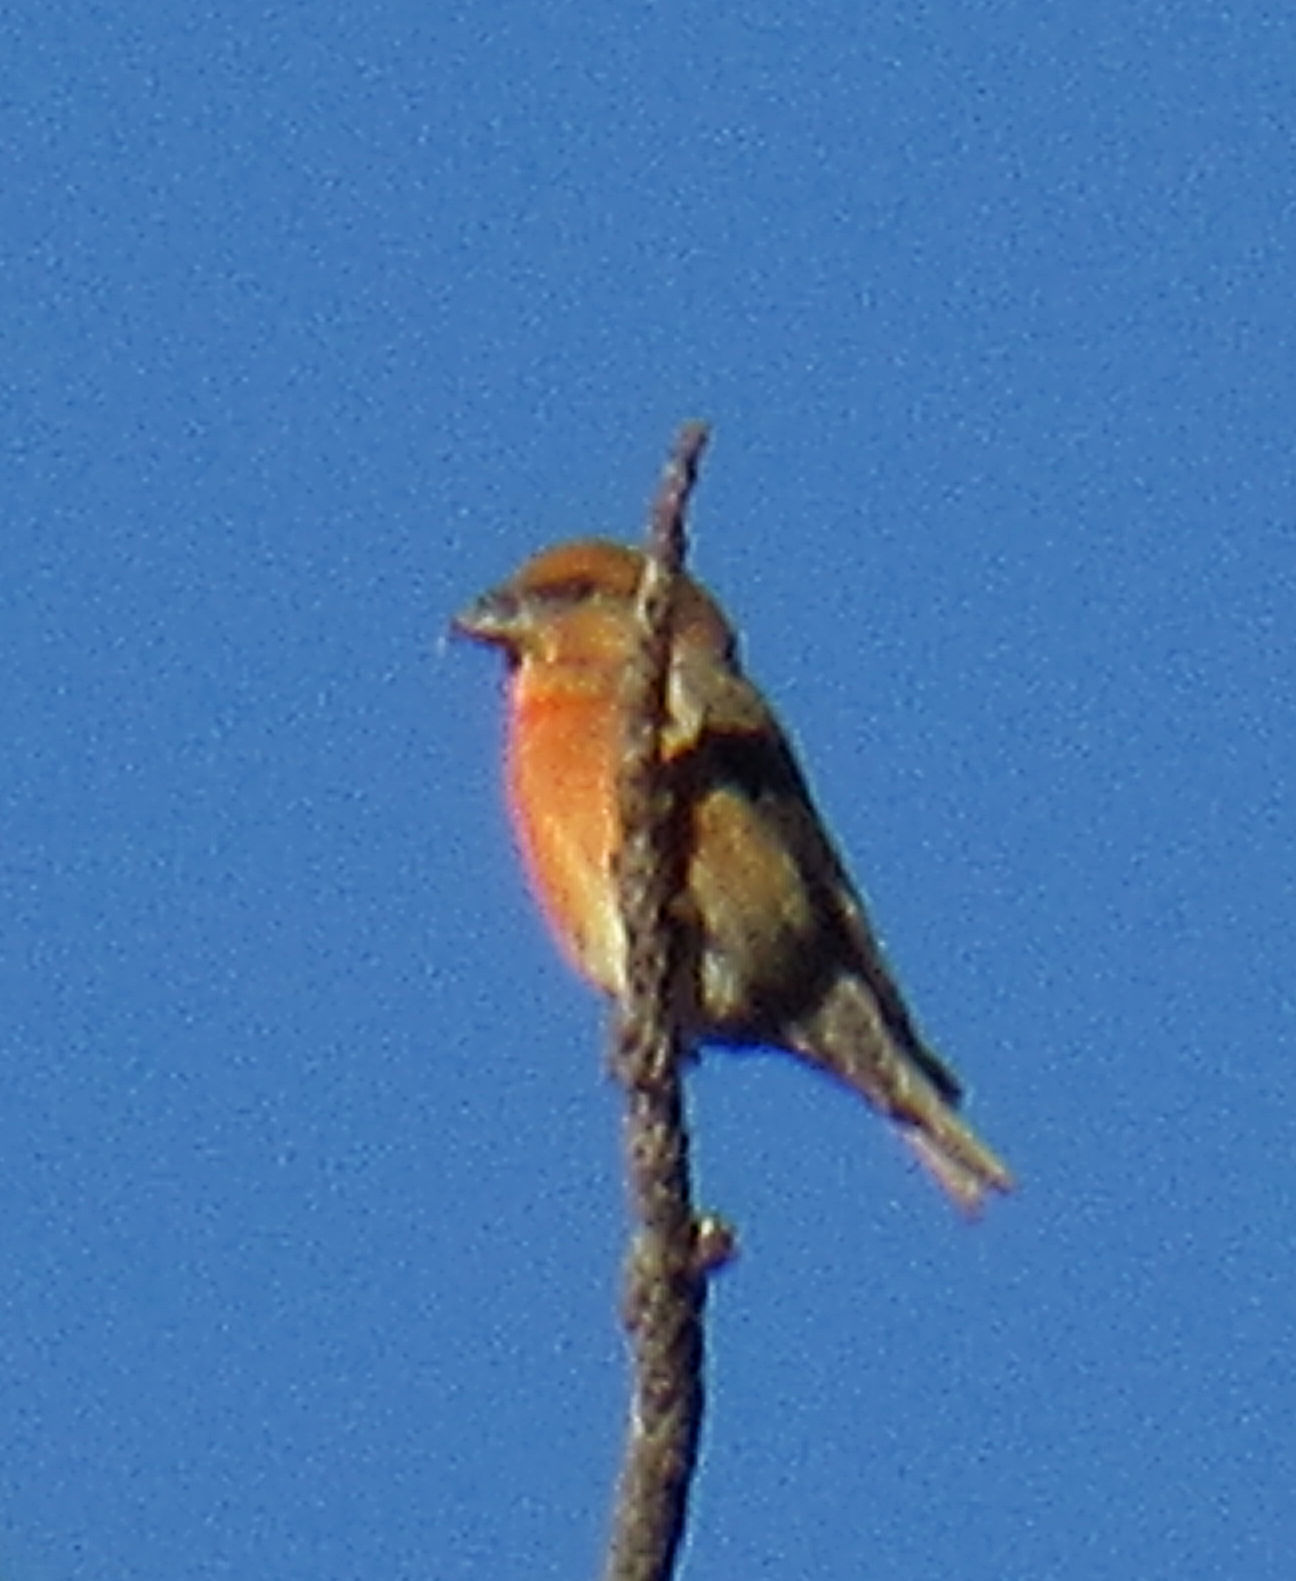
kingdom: Animalia
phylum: Chordata
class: Aves
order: Passeriformes
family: Fringillidae
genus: Loxia
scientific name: Loxia curvirostra
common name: Red crossbill
